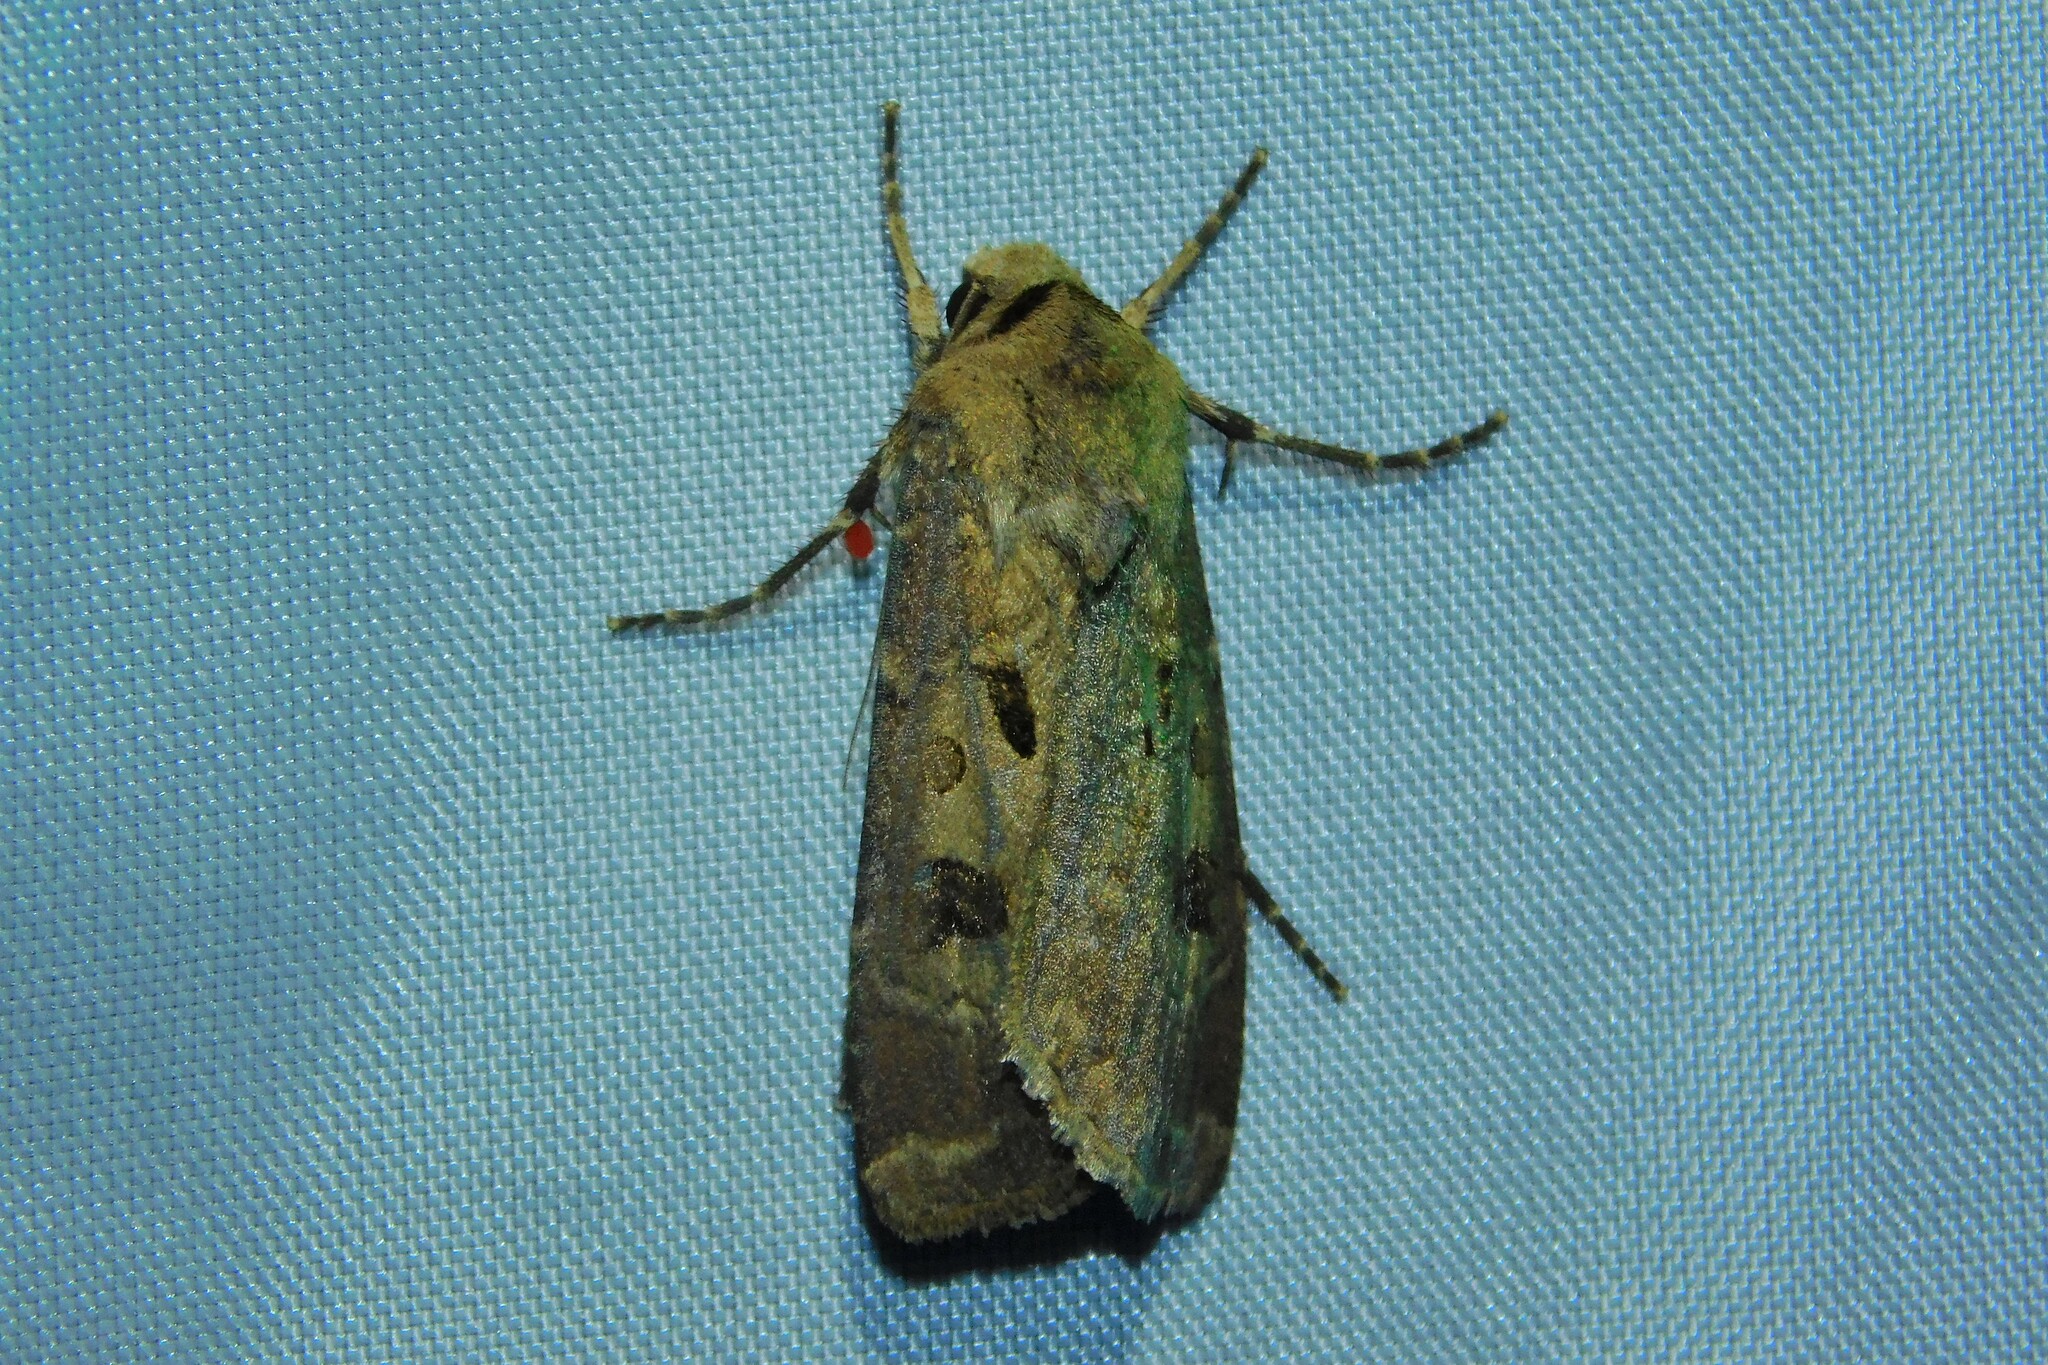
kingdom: Animalia
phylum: Arthropoda
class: Insecta
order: Lepidoptera
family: Noctuidae
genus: Agrotis
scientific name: Agrotis exclamationis
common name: Heart and dart
